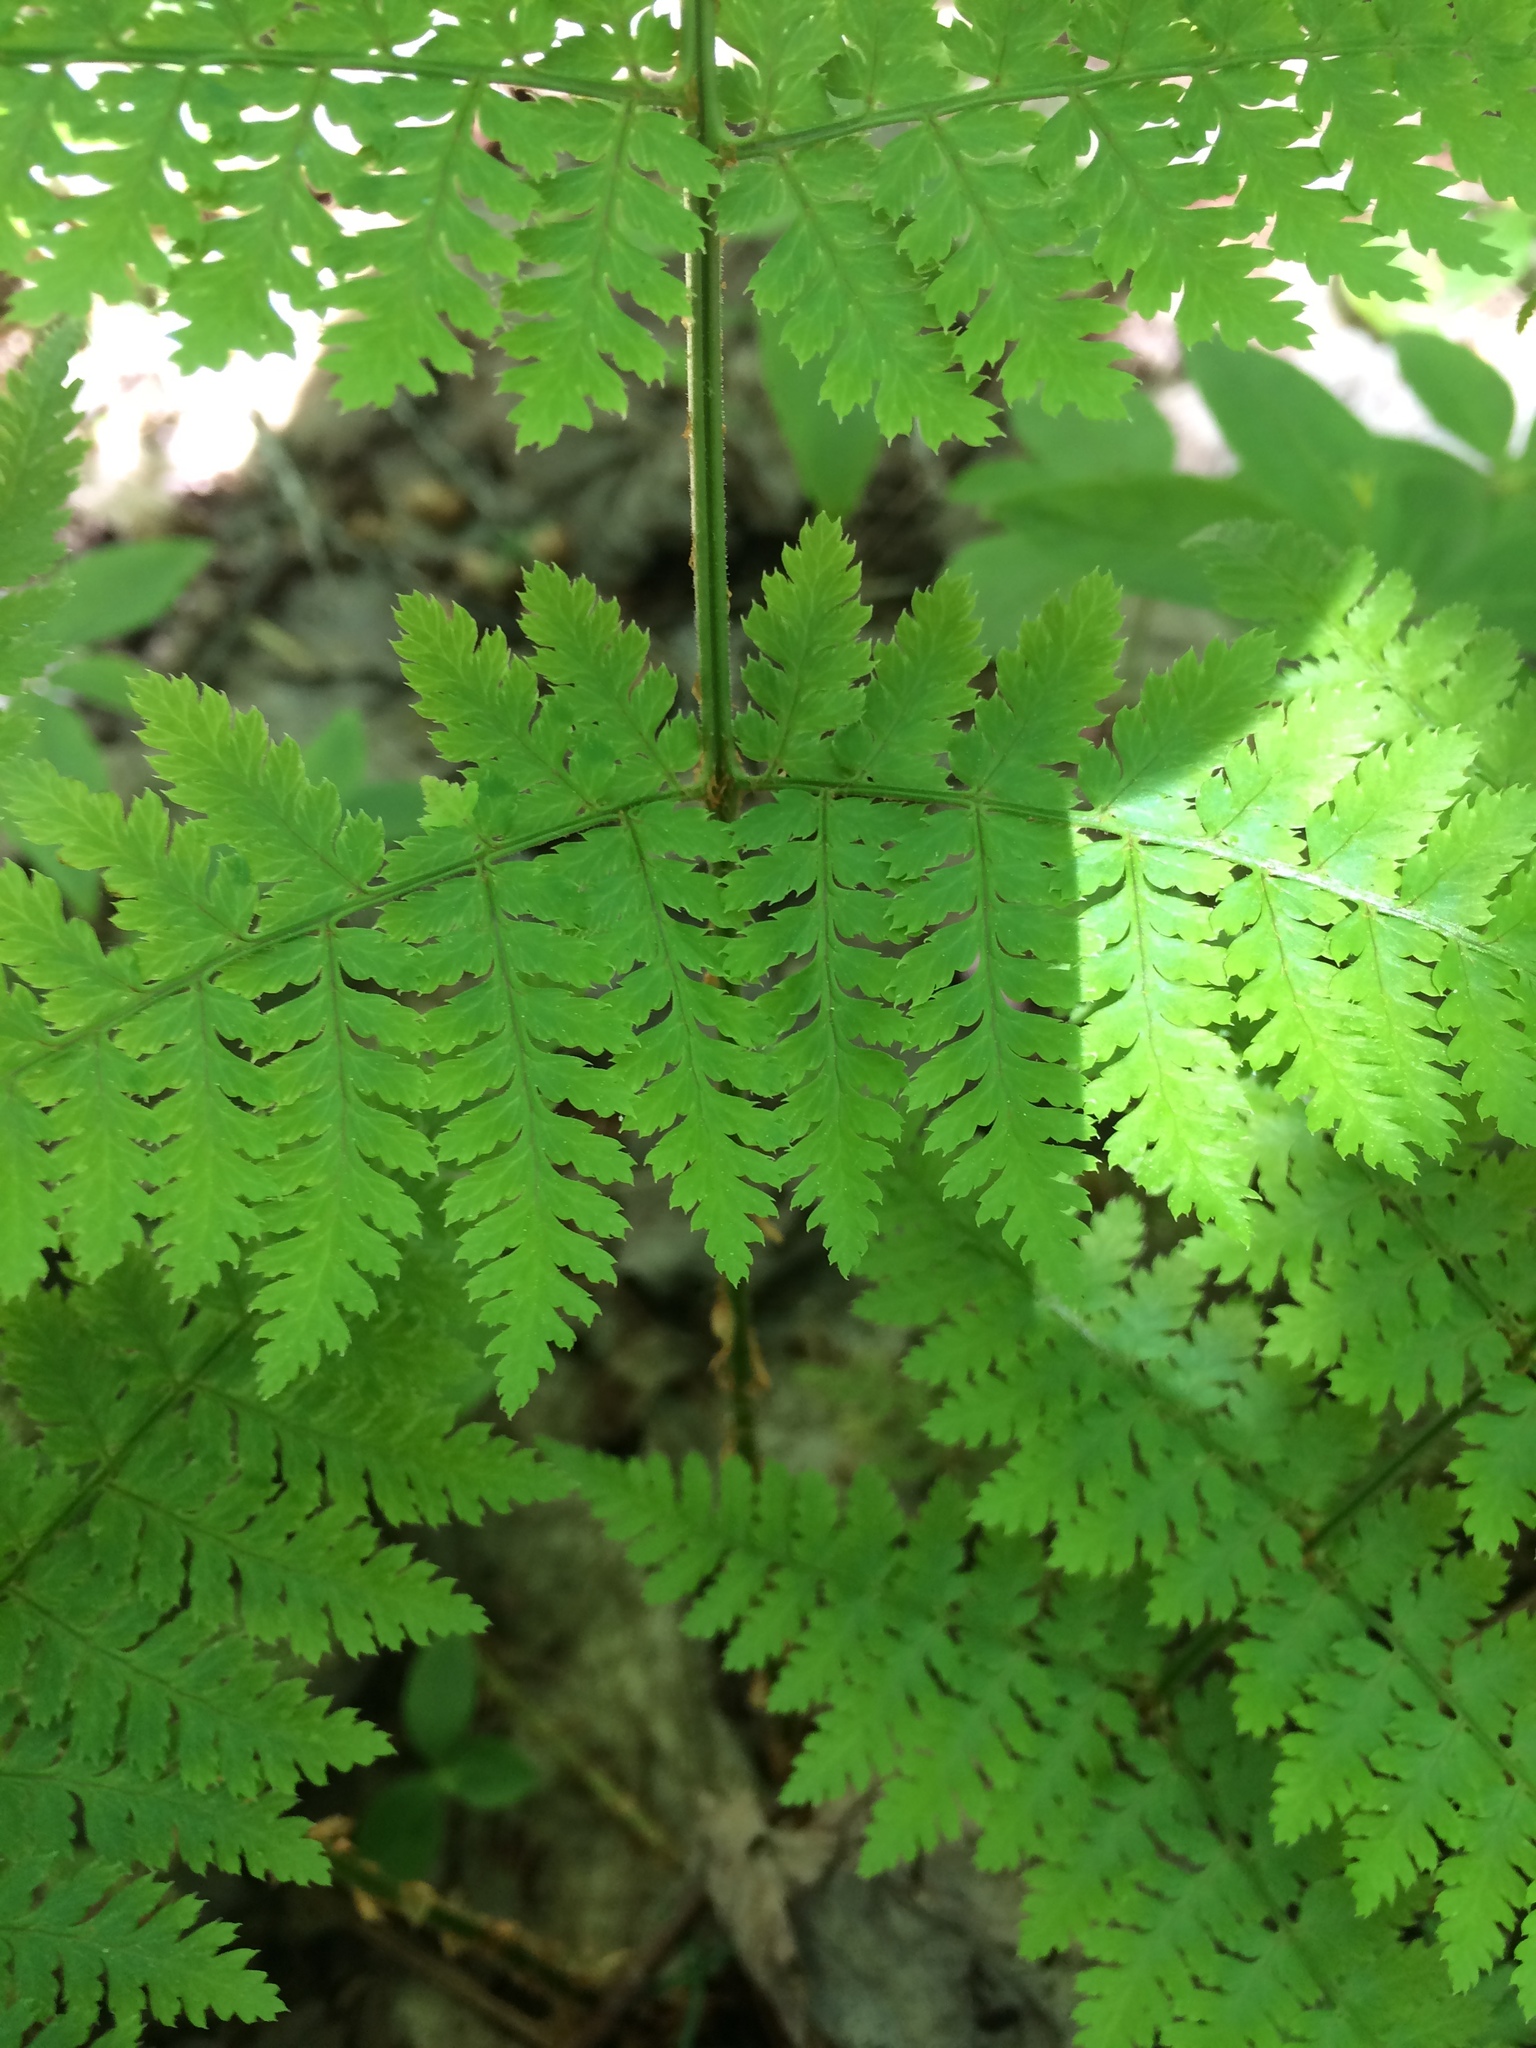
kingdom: Plantae
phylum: Tracheophyta
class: Polypodiopsida
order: Polypodiales
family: Dryopteridaceae
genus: Dryopteris
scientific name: Dryopteris intermedia
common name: Evergreen wood fern
